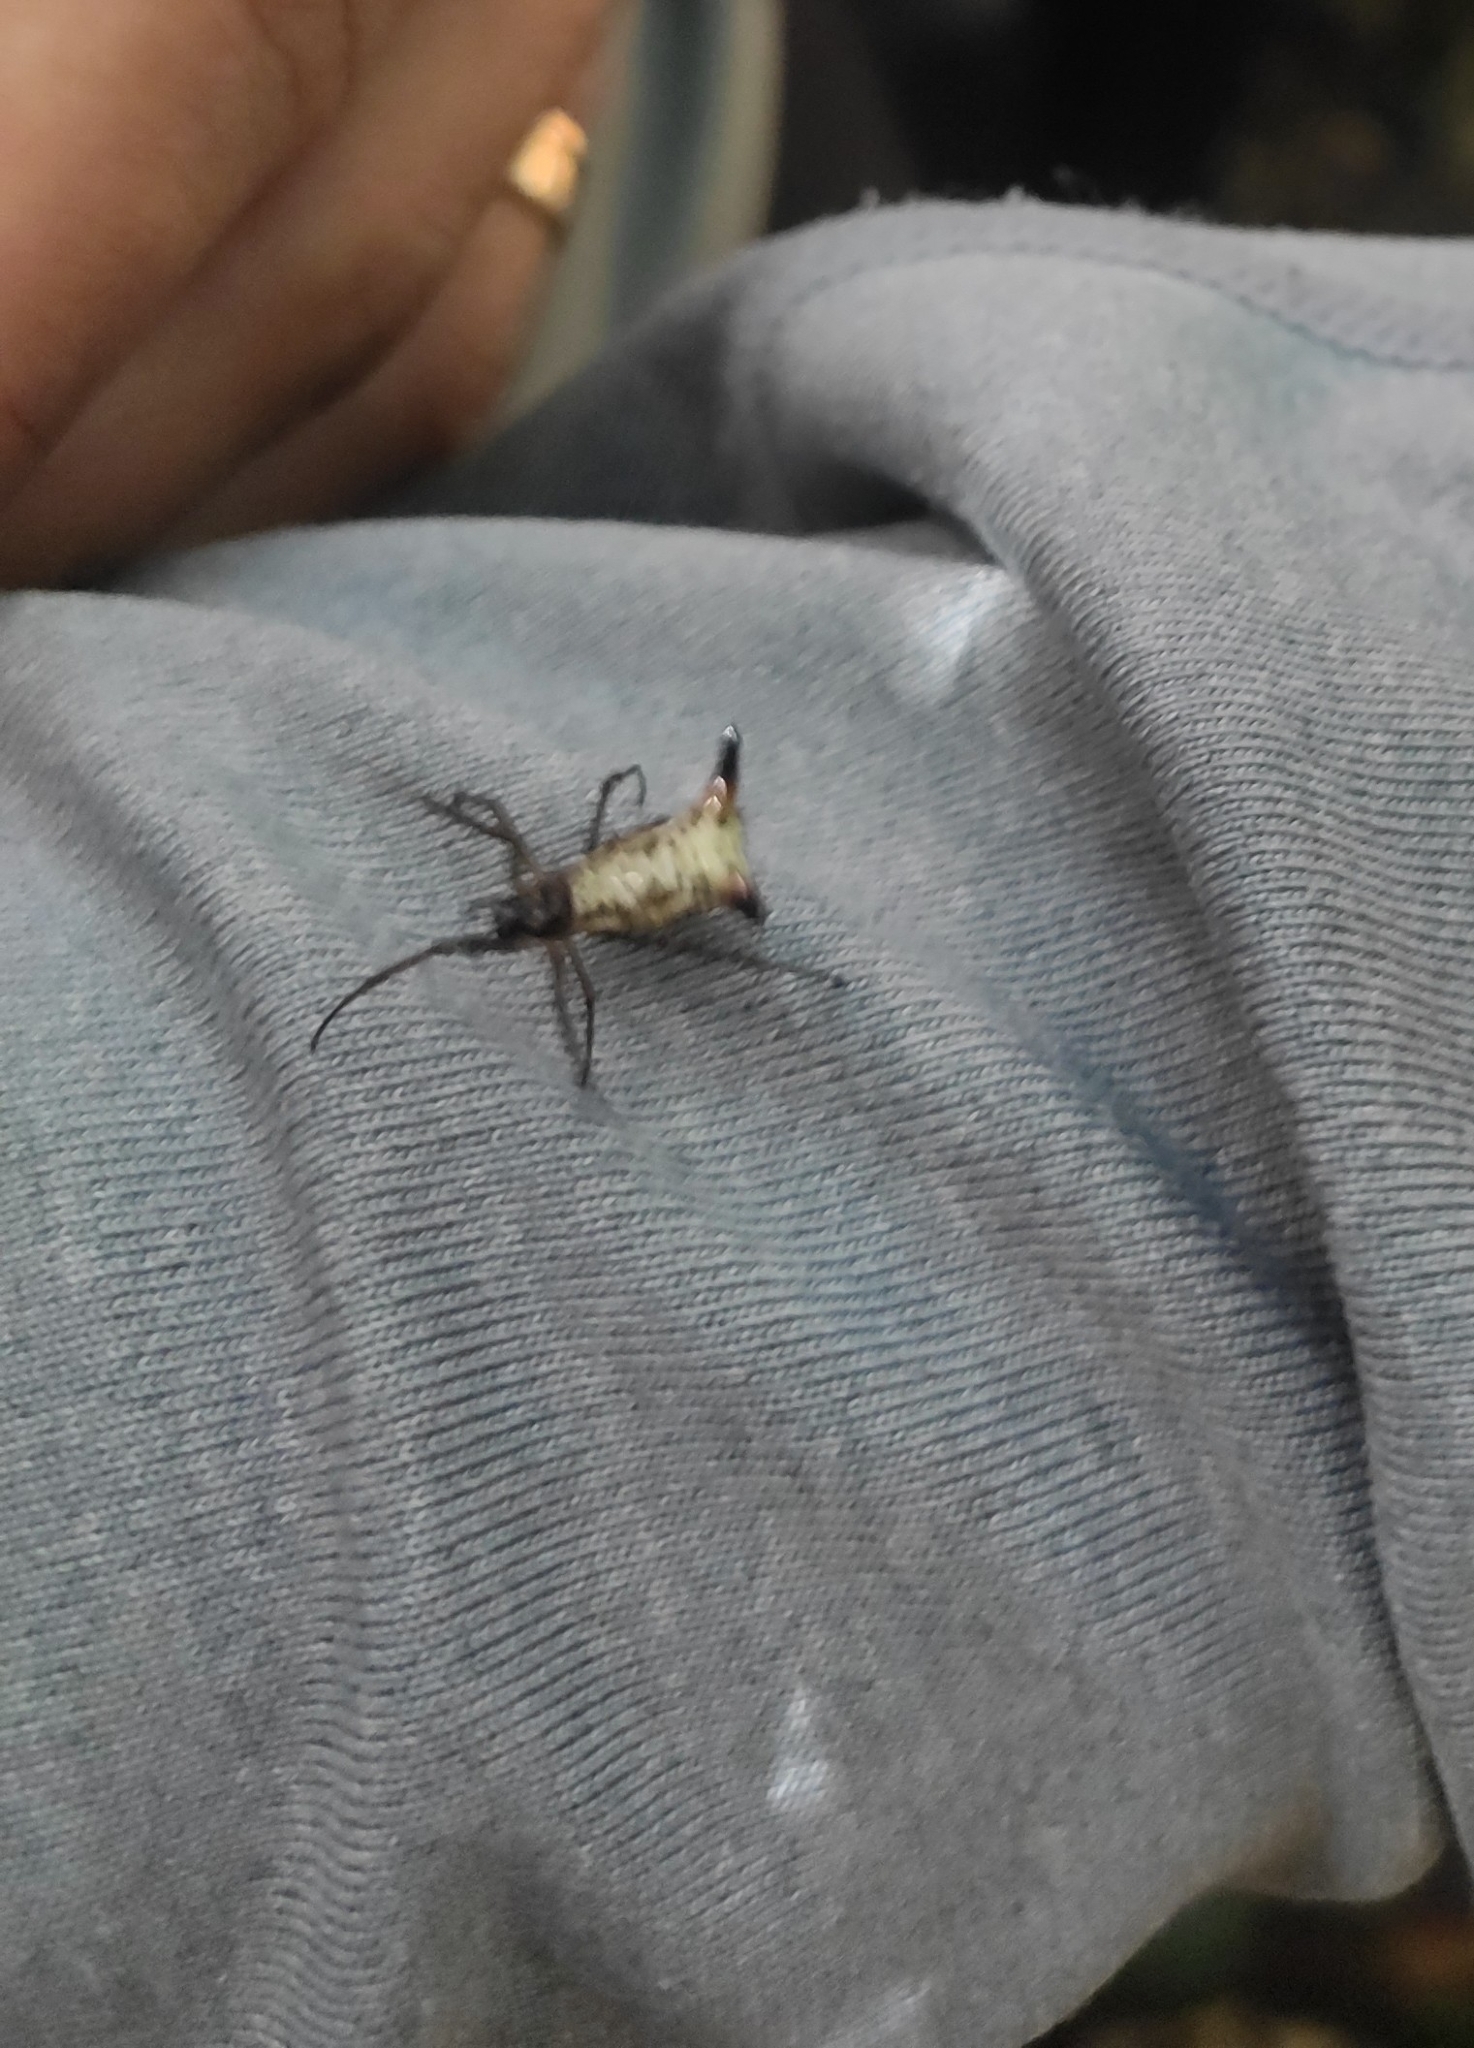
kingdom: Animalia
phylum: Arthropoda
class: Arachnida
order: Araneae
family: Araneidae
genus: Micrathena
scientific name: Micrathena sanctispiritus
